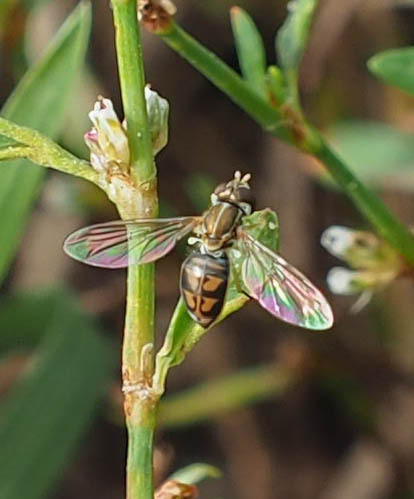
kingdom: Animalia
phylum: Arthropoda
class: Insecta
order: Diptera
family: Syrphidae
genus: Toxomerus
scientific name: Toxomerus marginatus
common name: Syrphid fly
